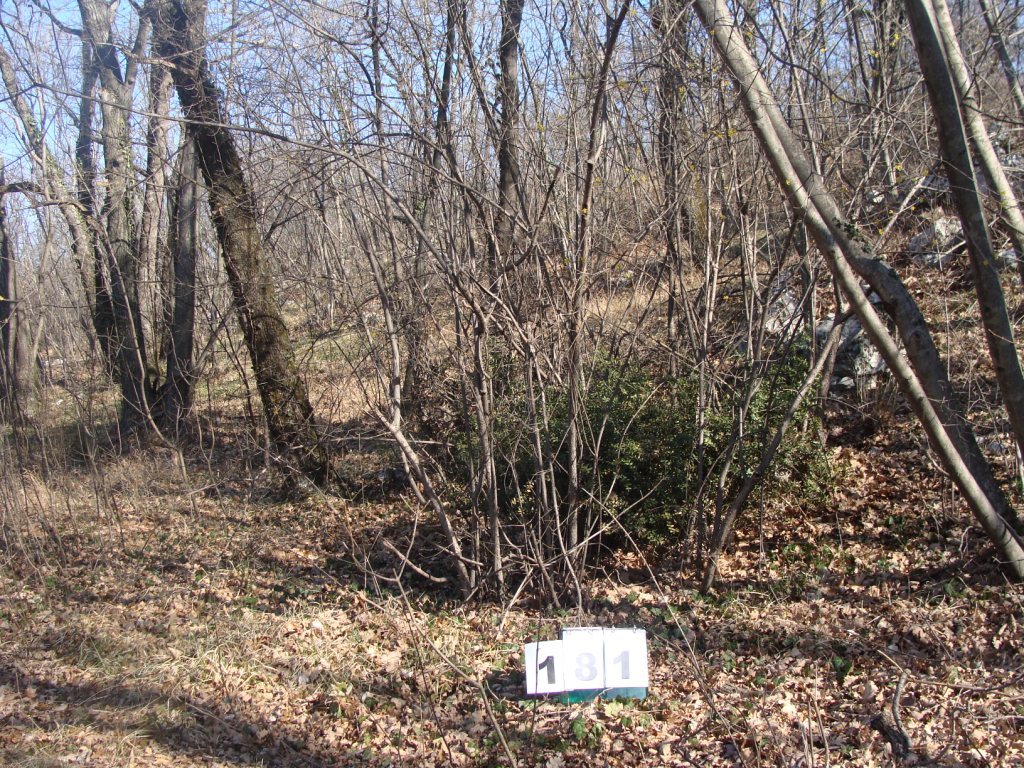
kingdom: Plantae
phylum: Tracheophyta
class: Magnoliopsida
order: Cornales
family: Cornaceae
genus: Cornus
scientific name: Cornus mas
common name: Cornelian-cherry
